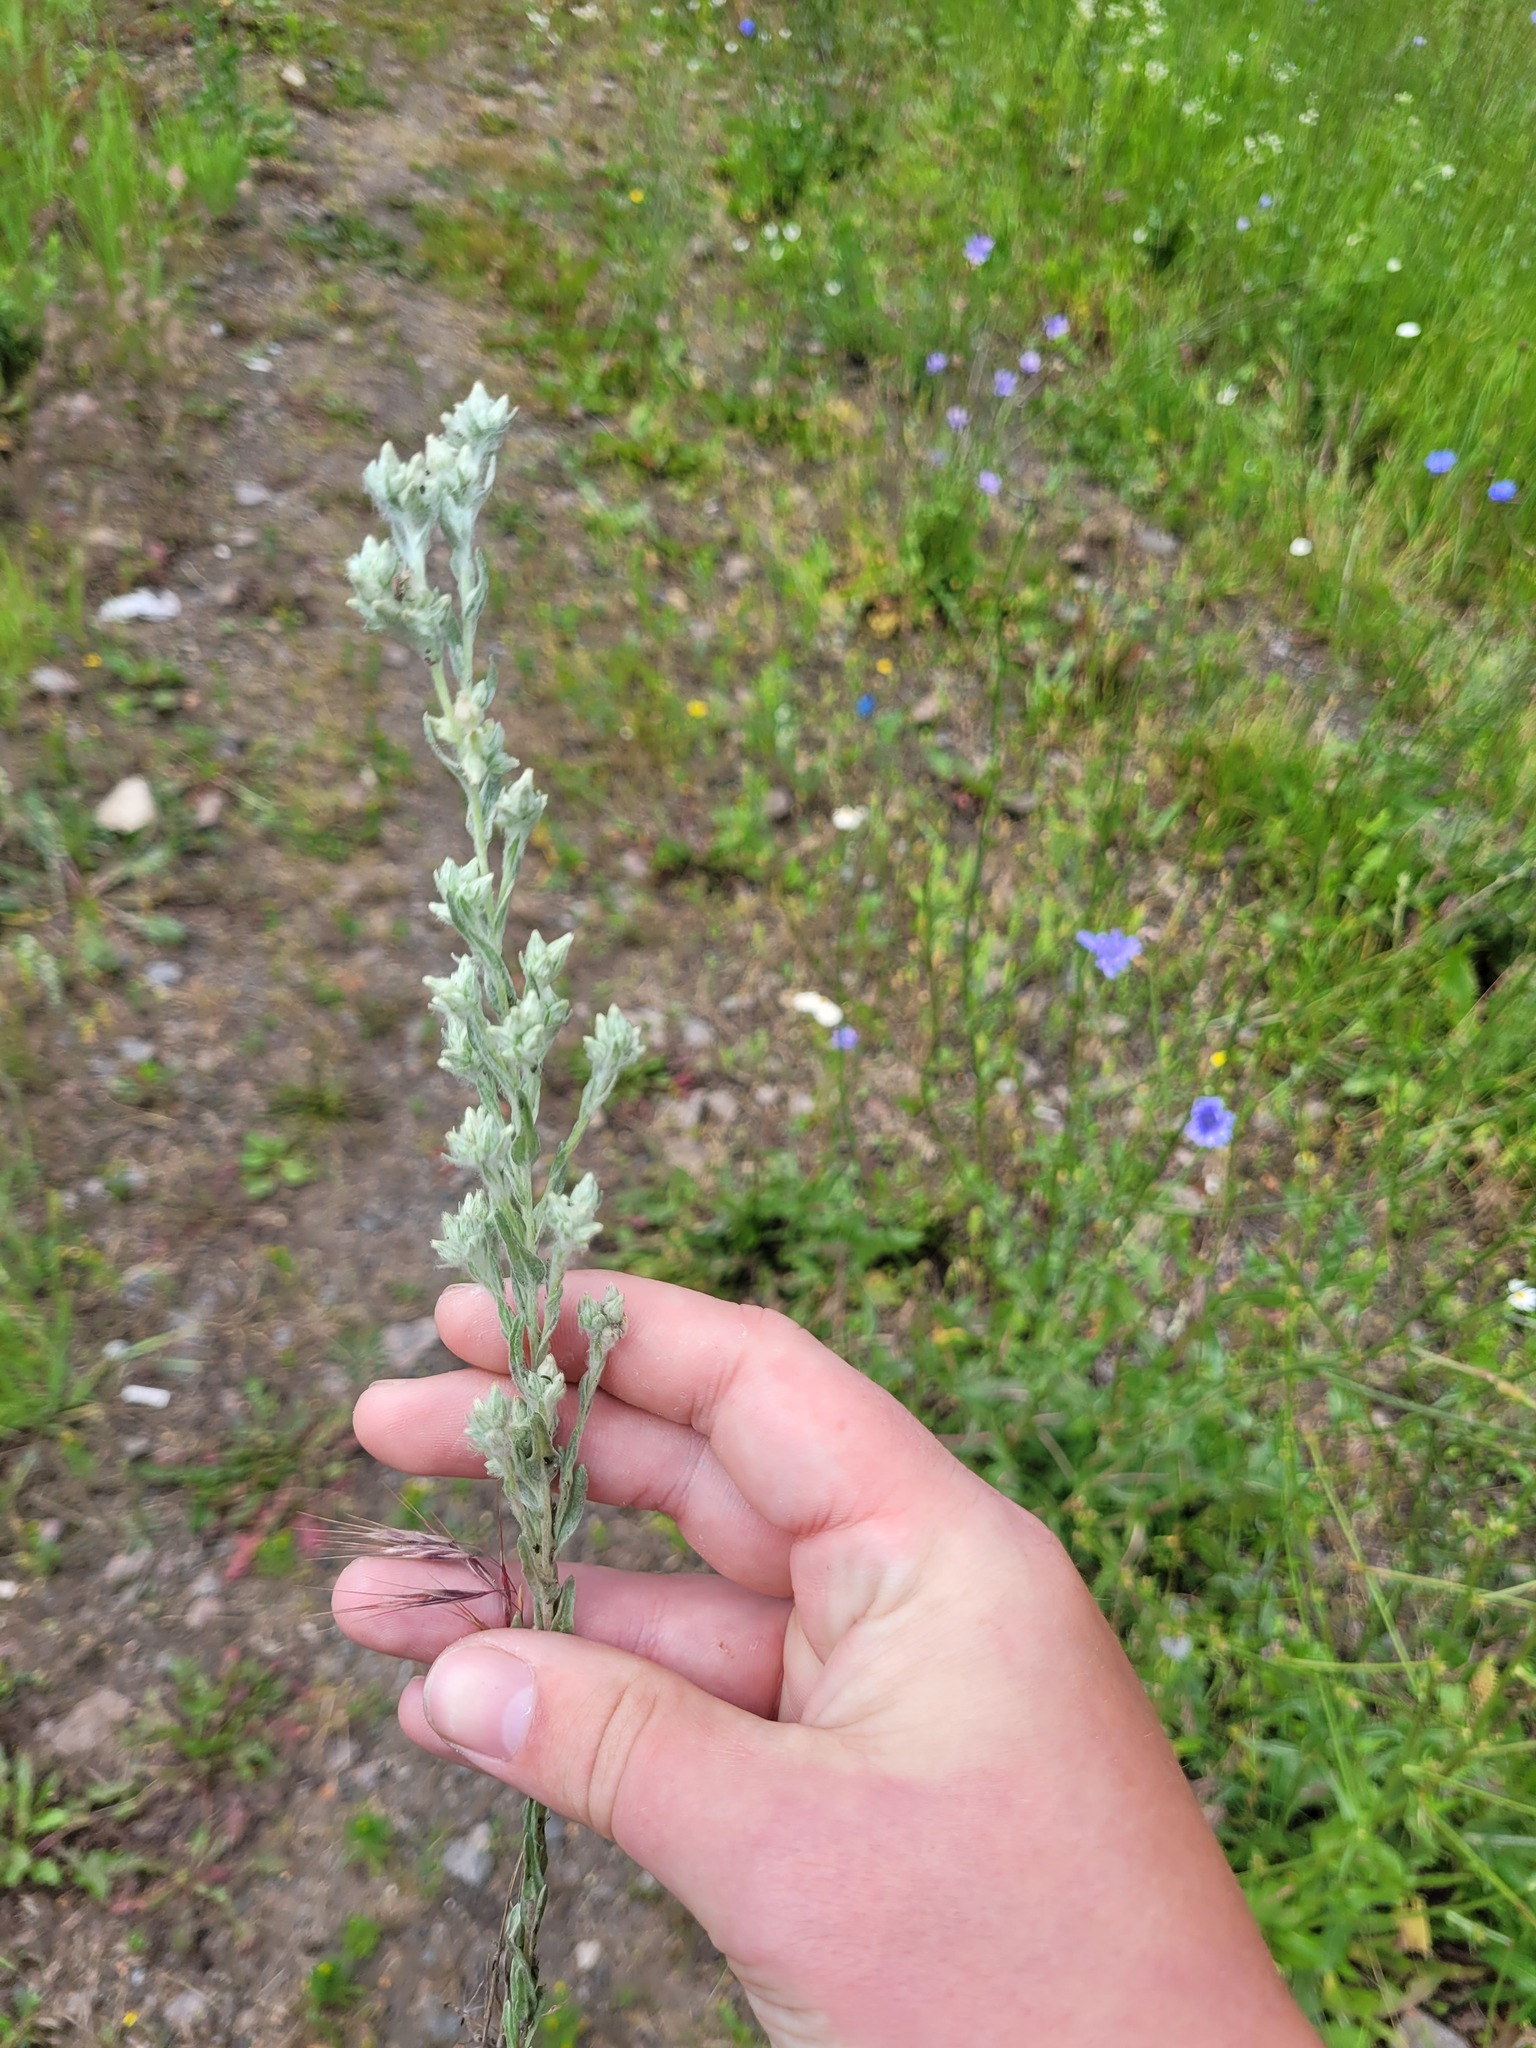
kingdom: Plantae
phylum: Tracheophyta
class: Magnoliopsida
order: Asterales
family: Asteraceae
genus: Filago
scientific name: Filago arvensis
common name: Field cudweed
